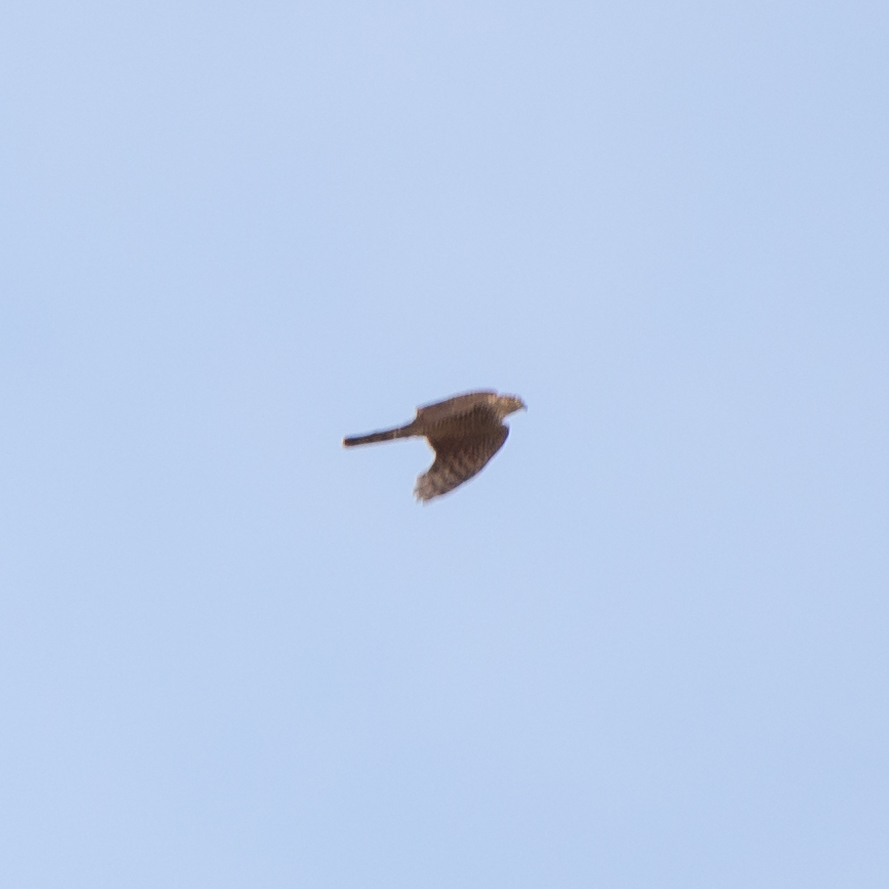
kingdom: Animalia
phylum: Chordata
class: Aves
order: Accipitriformes
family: Accipitridae
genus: Accipiter
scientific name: Accipiter nisus
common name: Eurasian sparrowhawk
